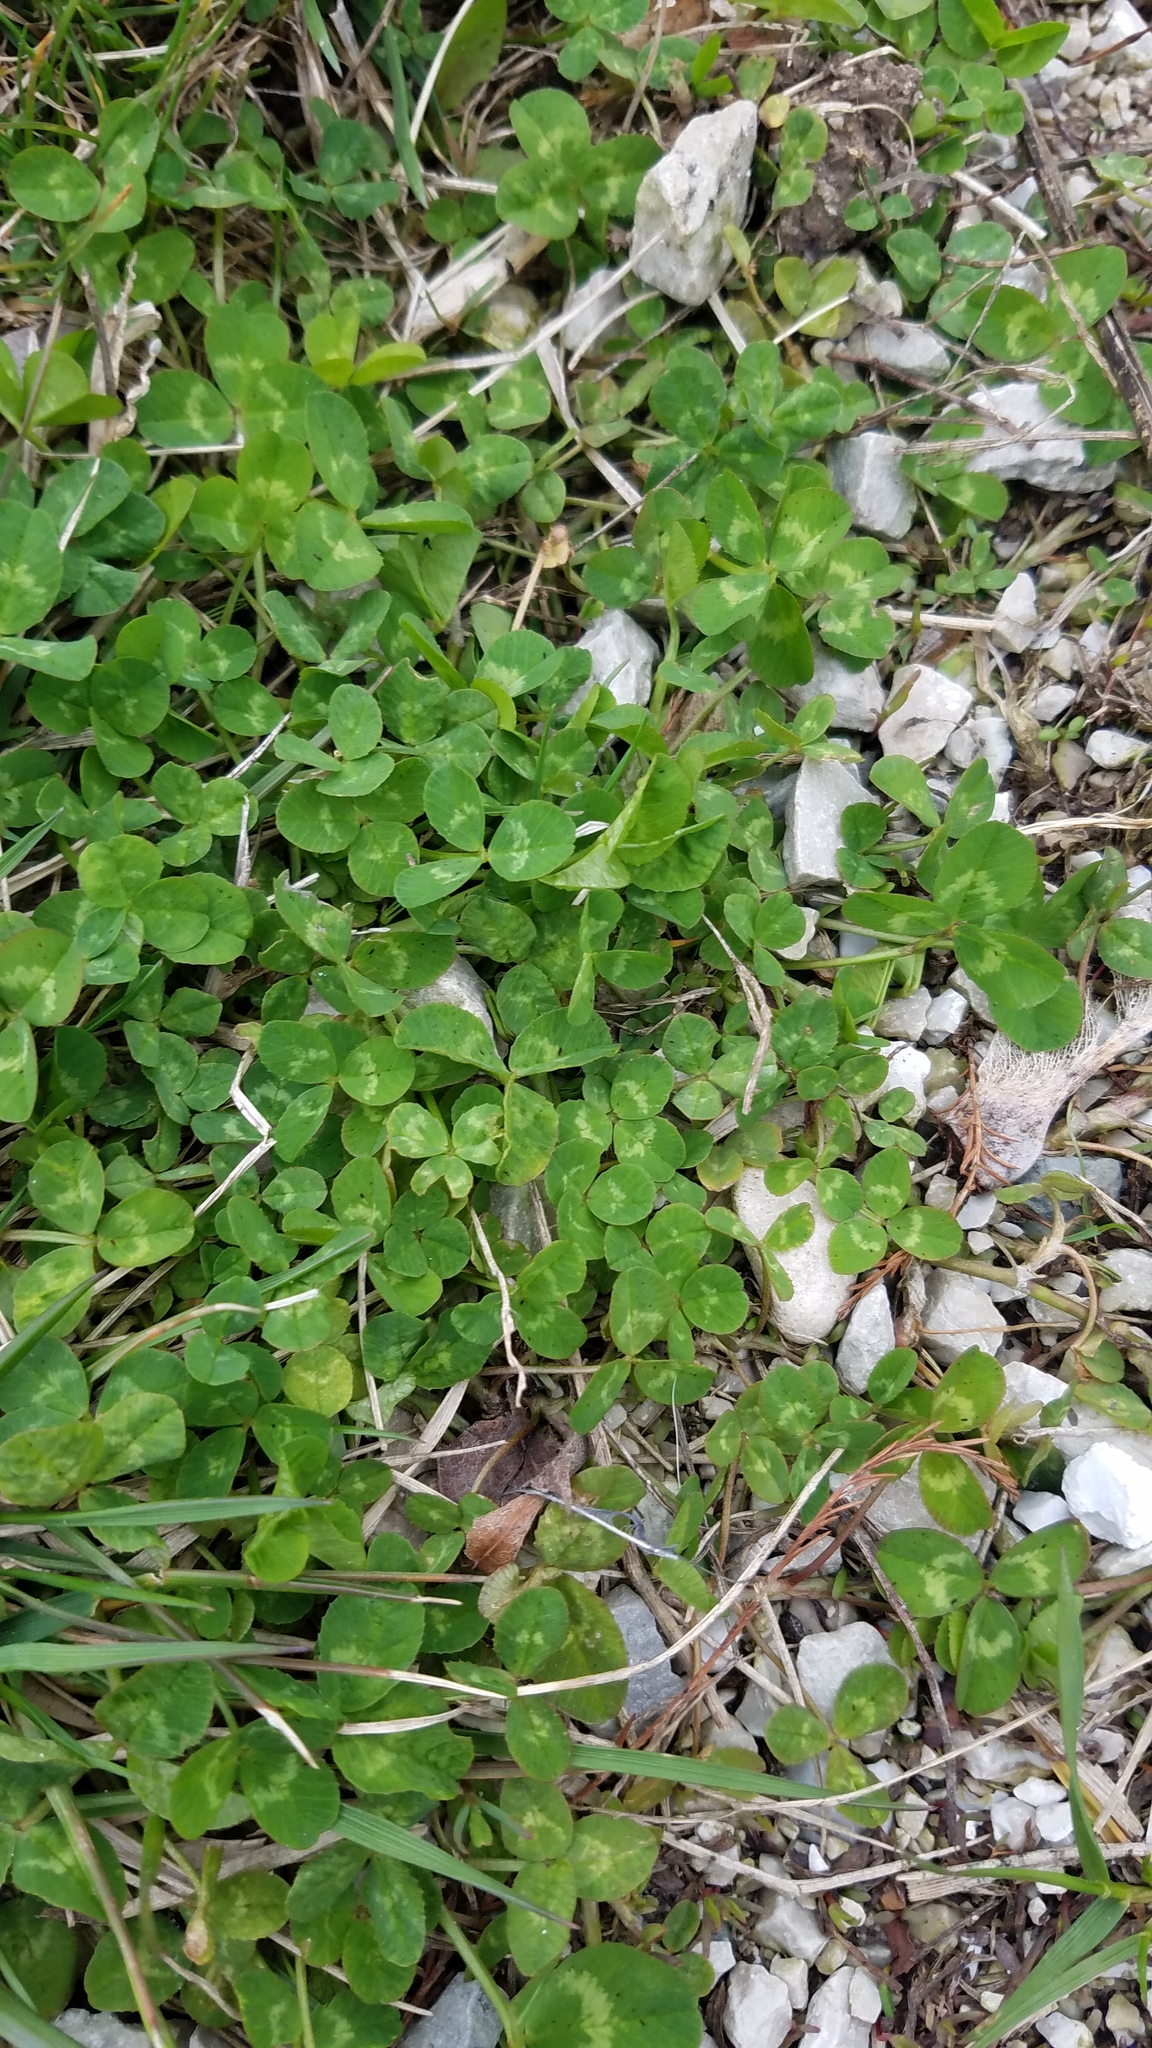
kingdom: Plantae
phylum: Tracheophyta
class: Magnoliopsida
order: Fabales
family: Fabaceae
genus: Trifolium
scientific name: Trifolium repens
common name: White clover
